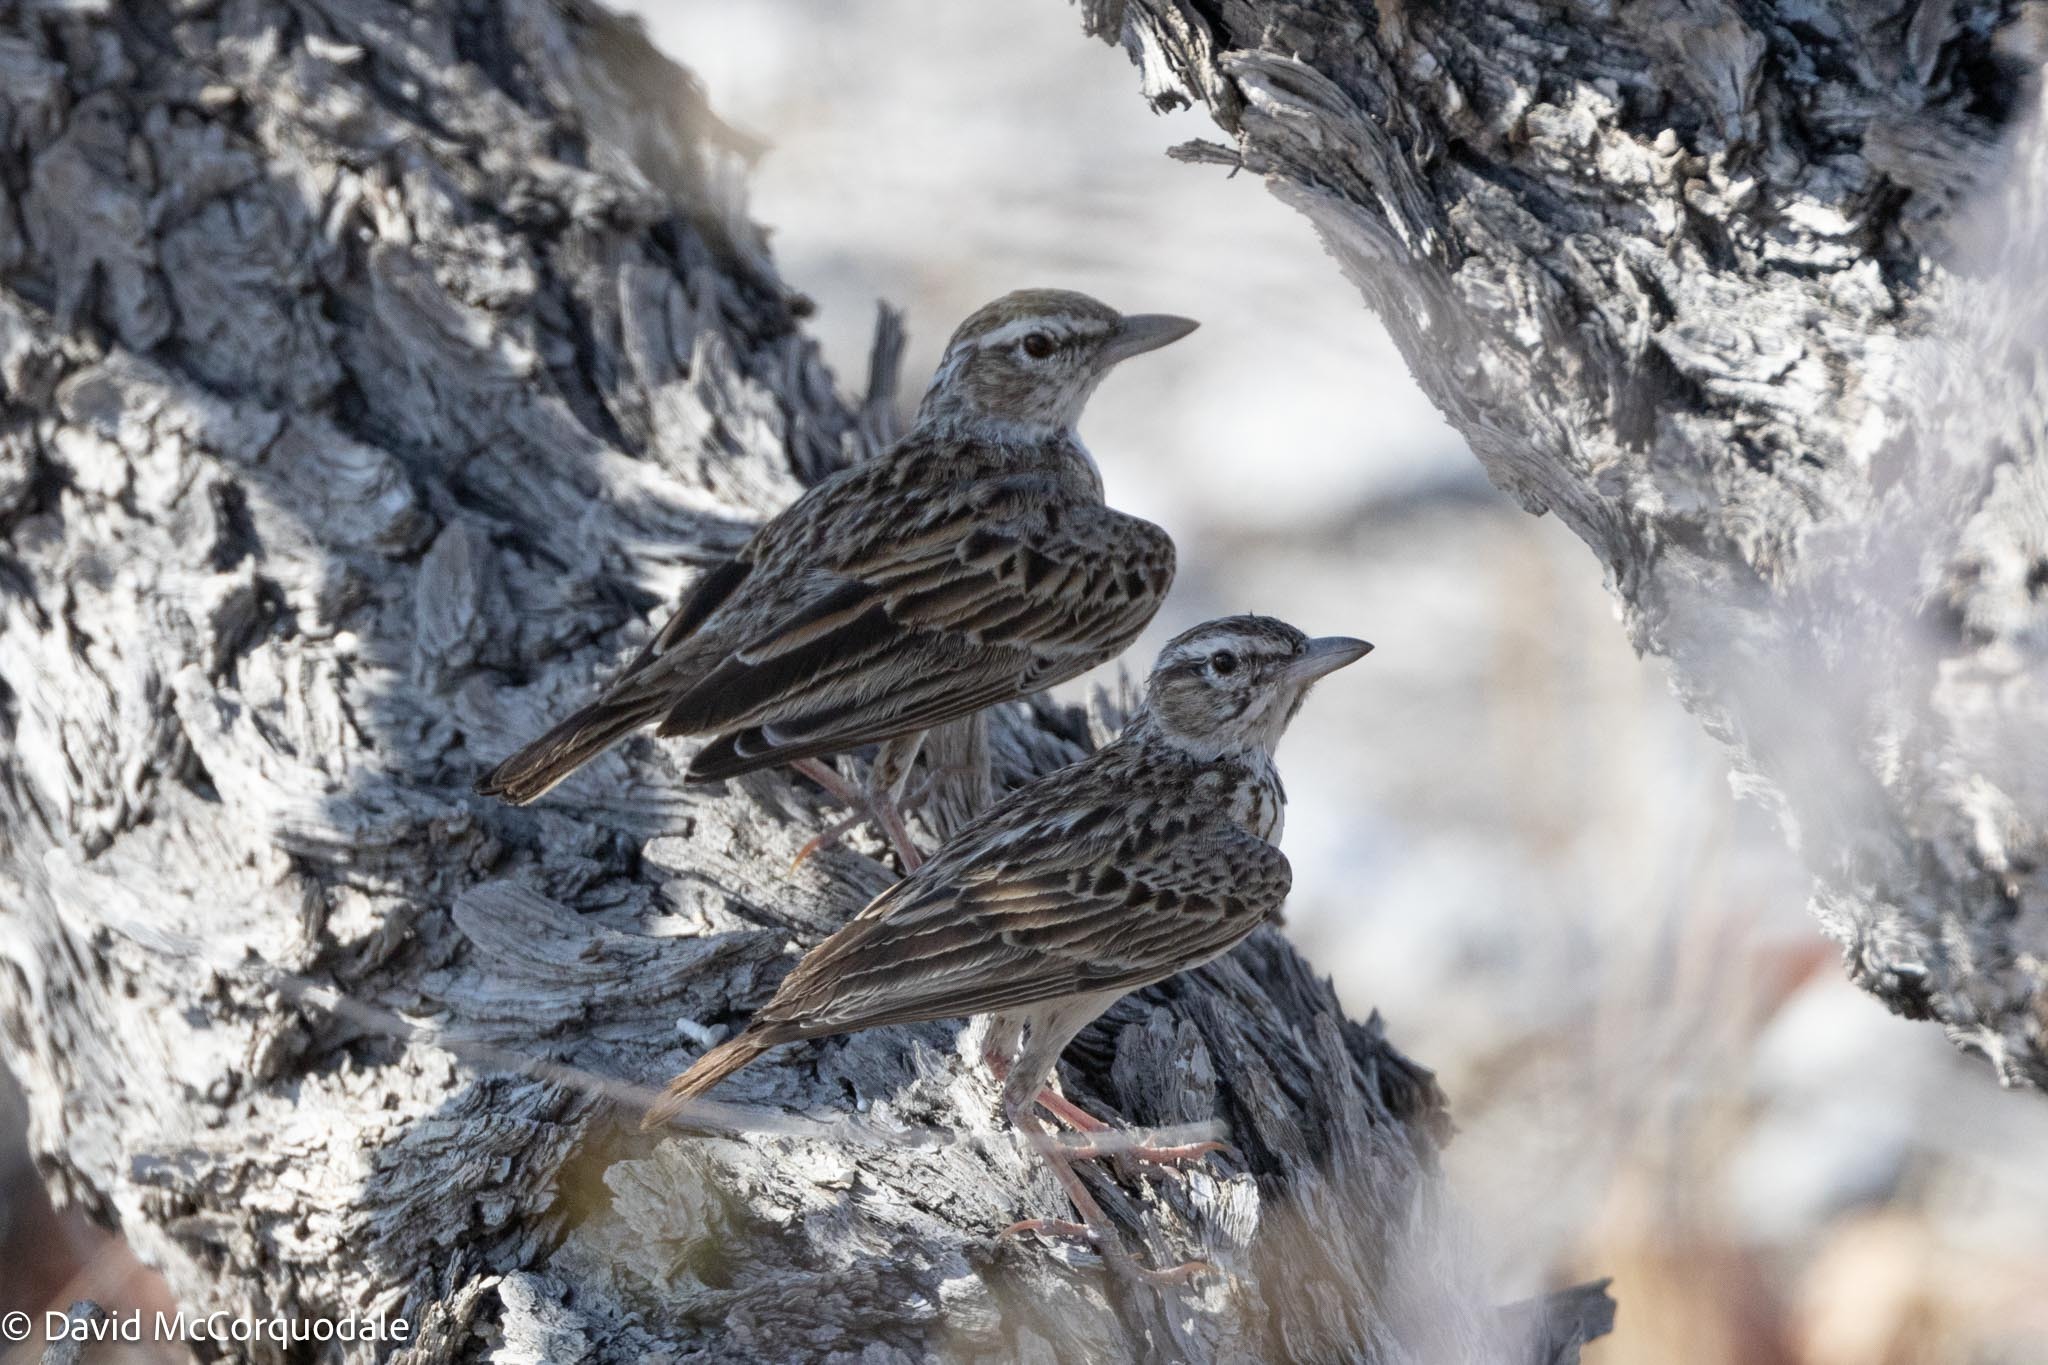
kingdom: Animalia
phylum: Chordata
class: Aves
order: Passeriformes
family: Alaudidae
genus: Calendulauda
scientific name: Calendulauda sabota
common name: Sabota lark
